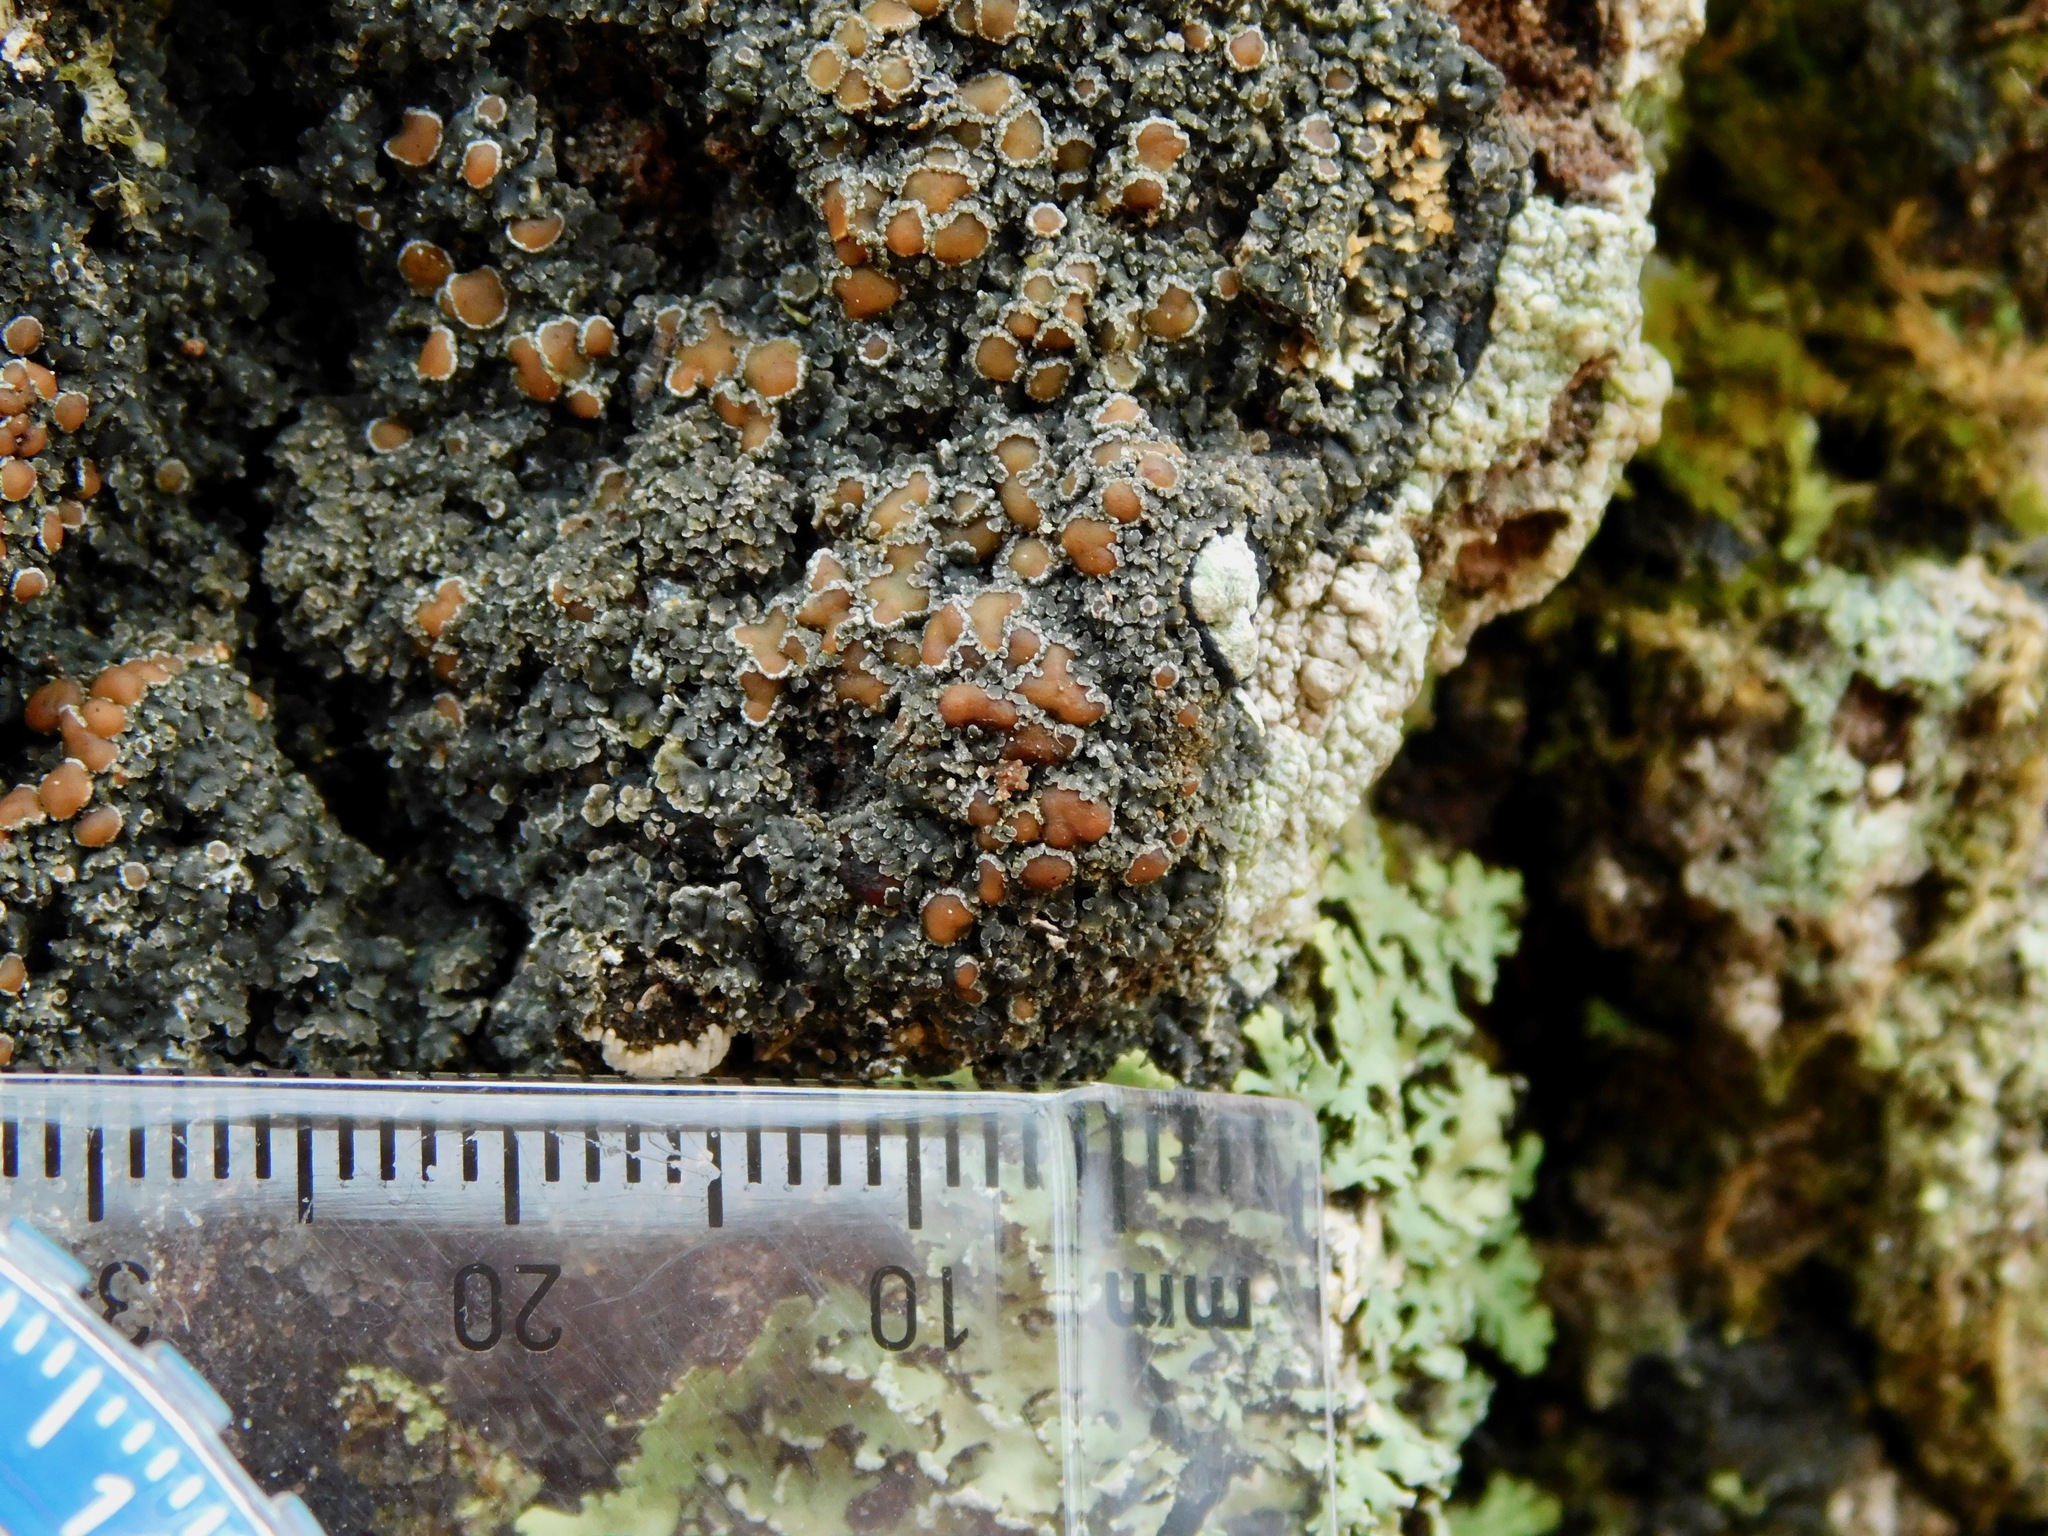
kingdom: Fungi
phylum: Ascomycota
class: Lecanoromycetes
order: Peltigerales
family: Pannariaceae
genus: Fuscopannaria
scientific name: Fuscopannaria leucosticta
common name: Rimmed shingle lichen
